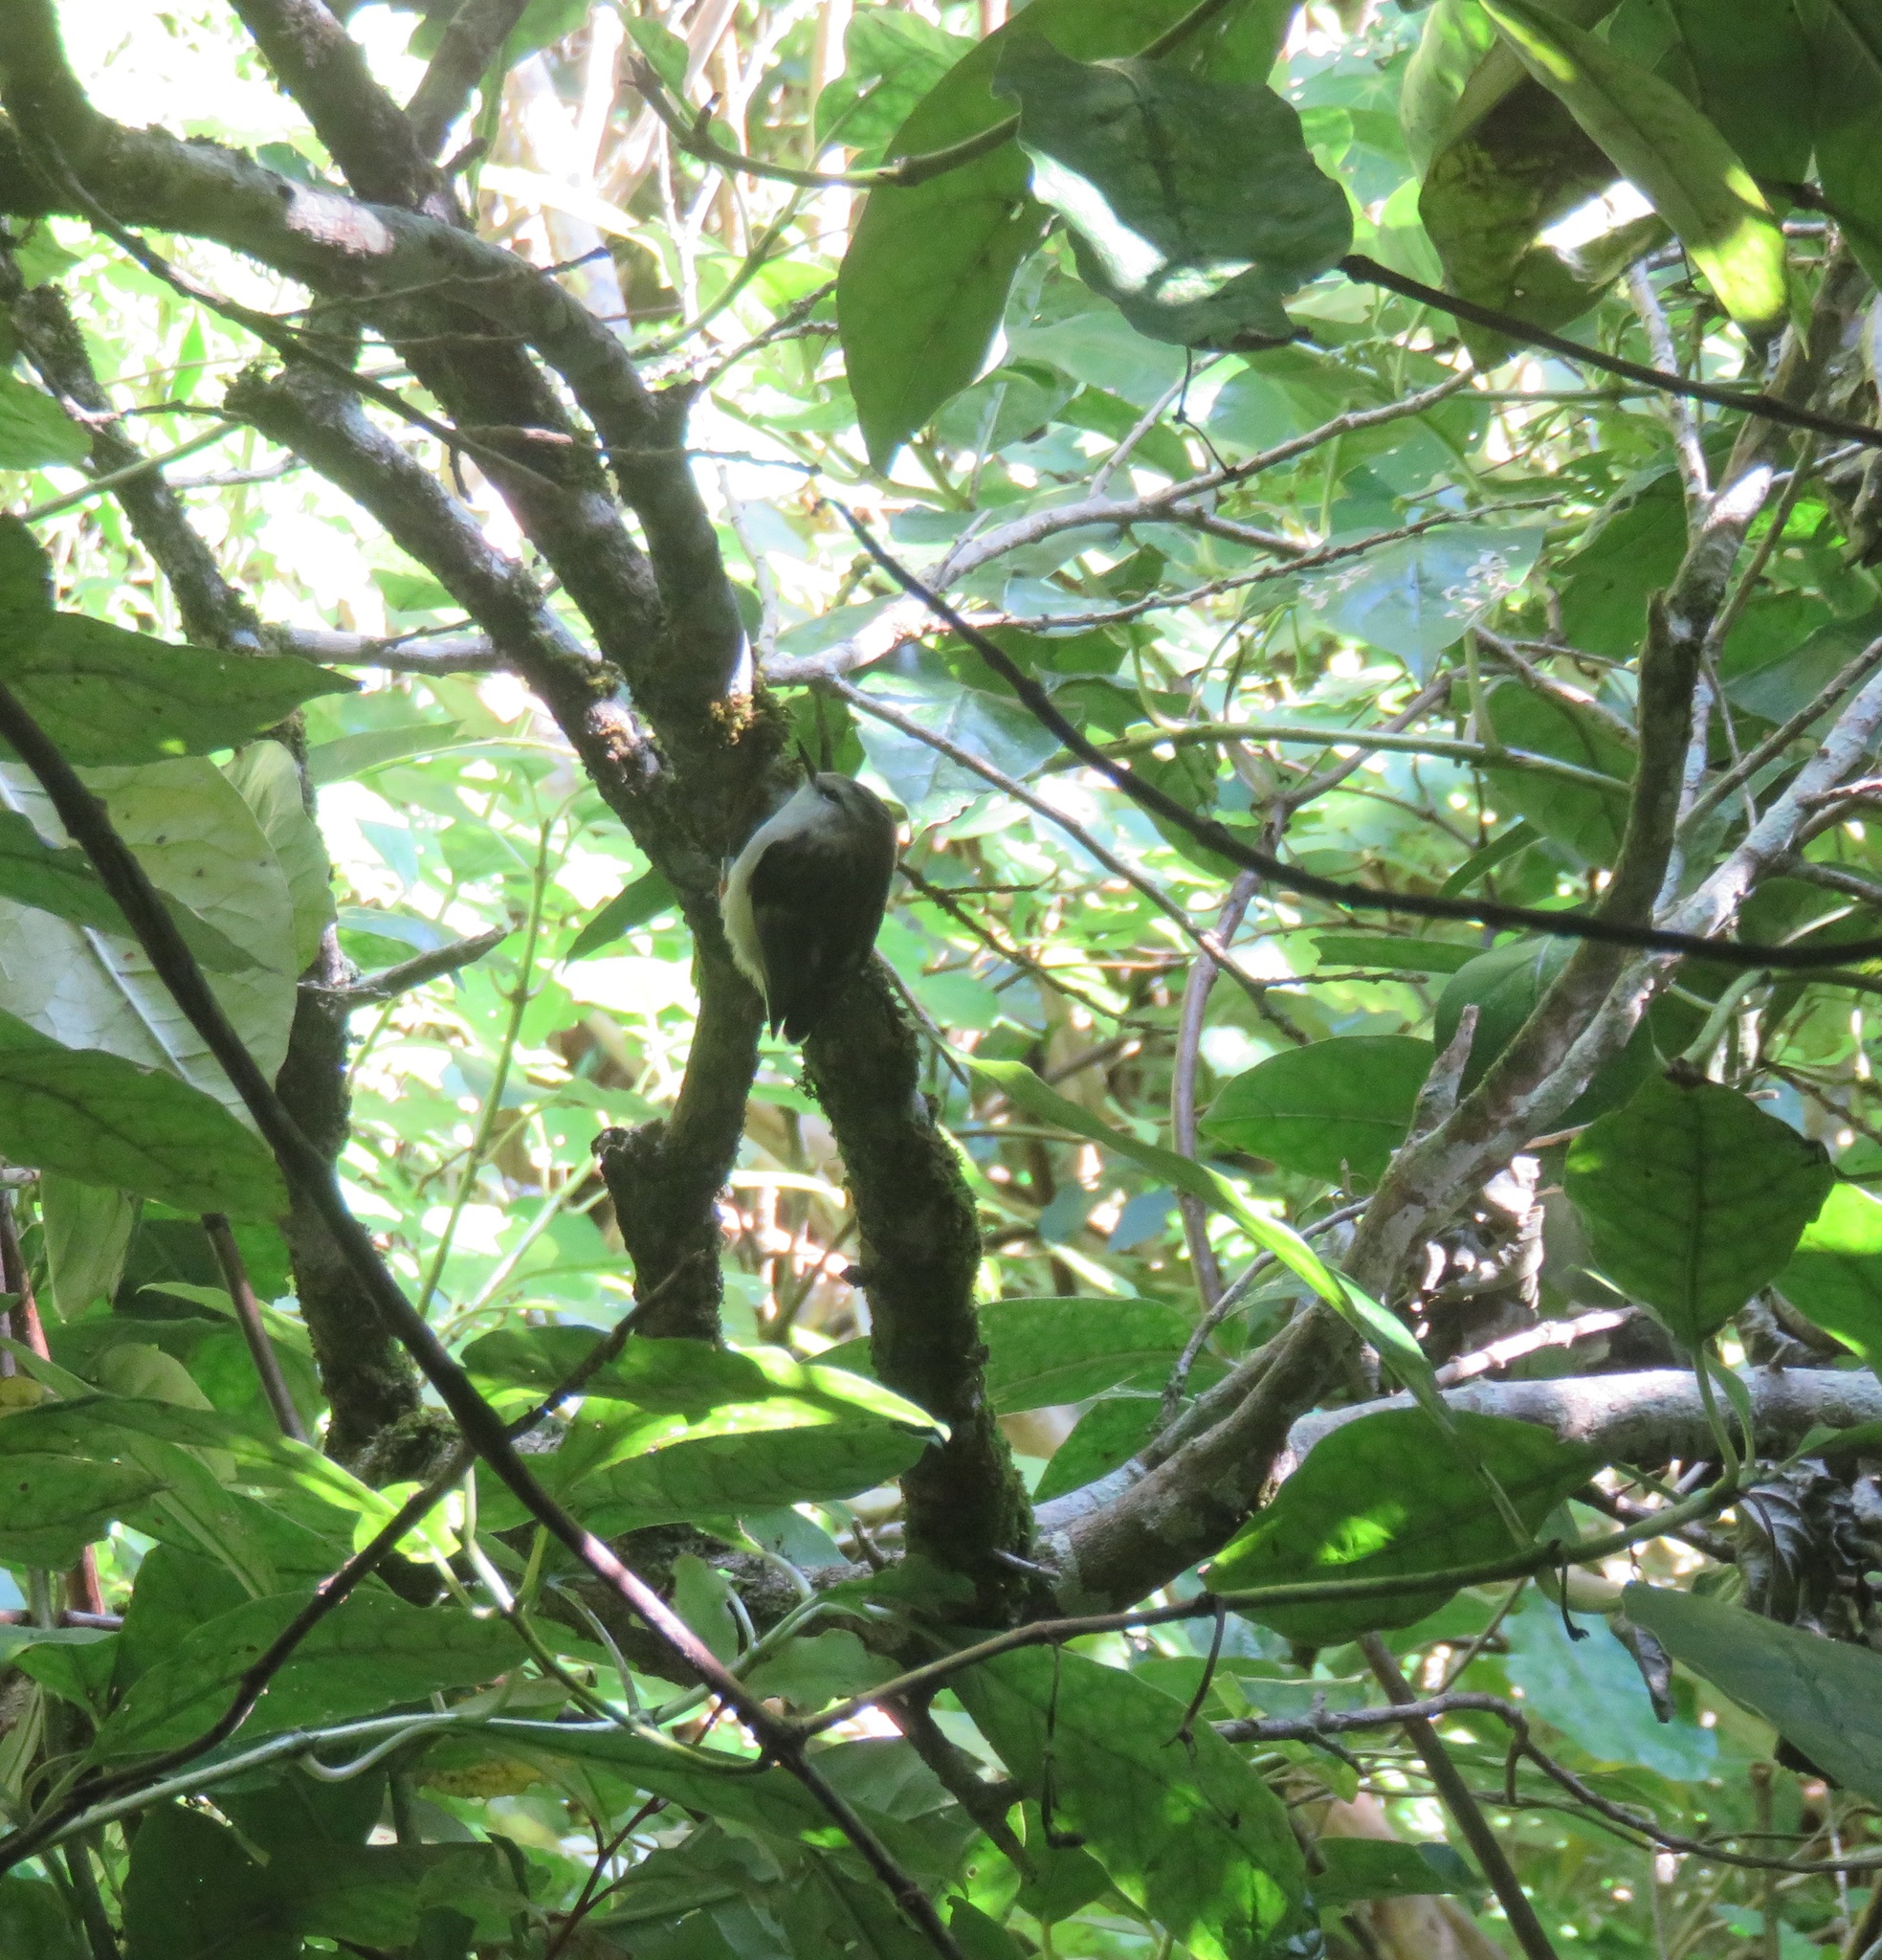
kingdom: Animalia
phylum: Chordata
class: Aves
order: Passeriformes
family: Acanthisittidae
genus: Acanthisitta
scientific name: Acanthisitta chloris
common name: Rifleman
